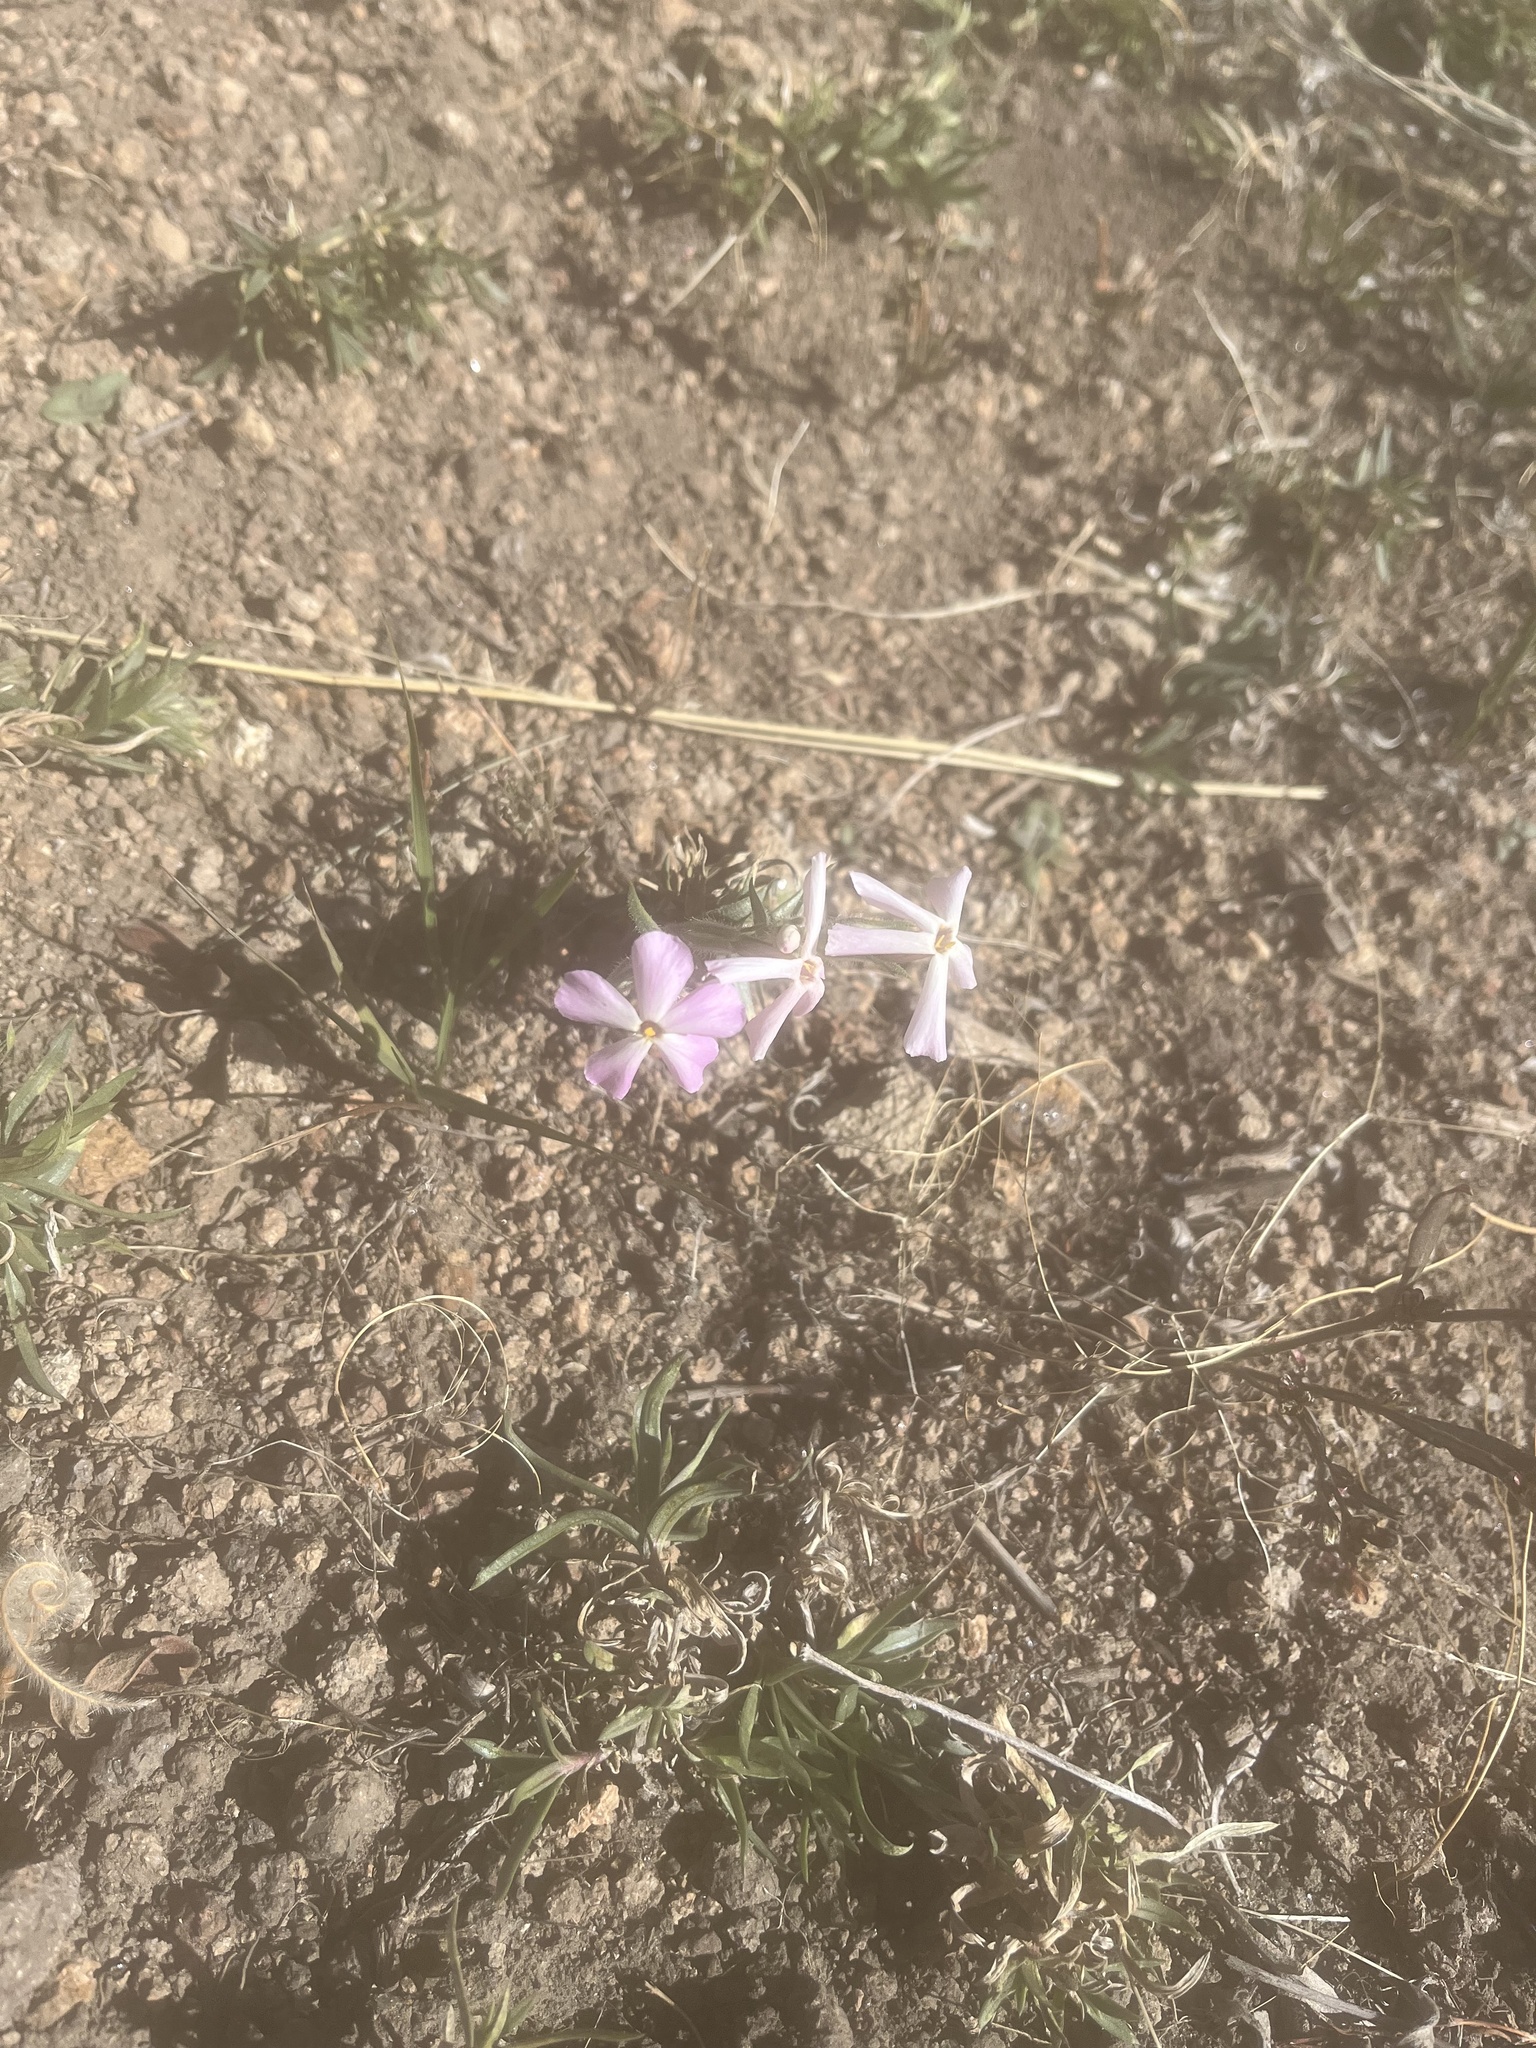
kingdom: Plantae
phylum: Tracheophyta
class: Magnoliopsida
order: Ericales
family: Polemoniaceae
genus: Phlox
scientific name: Phlox longifolia
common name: Longleaf phlox
